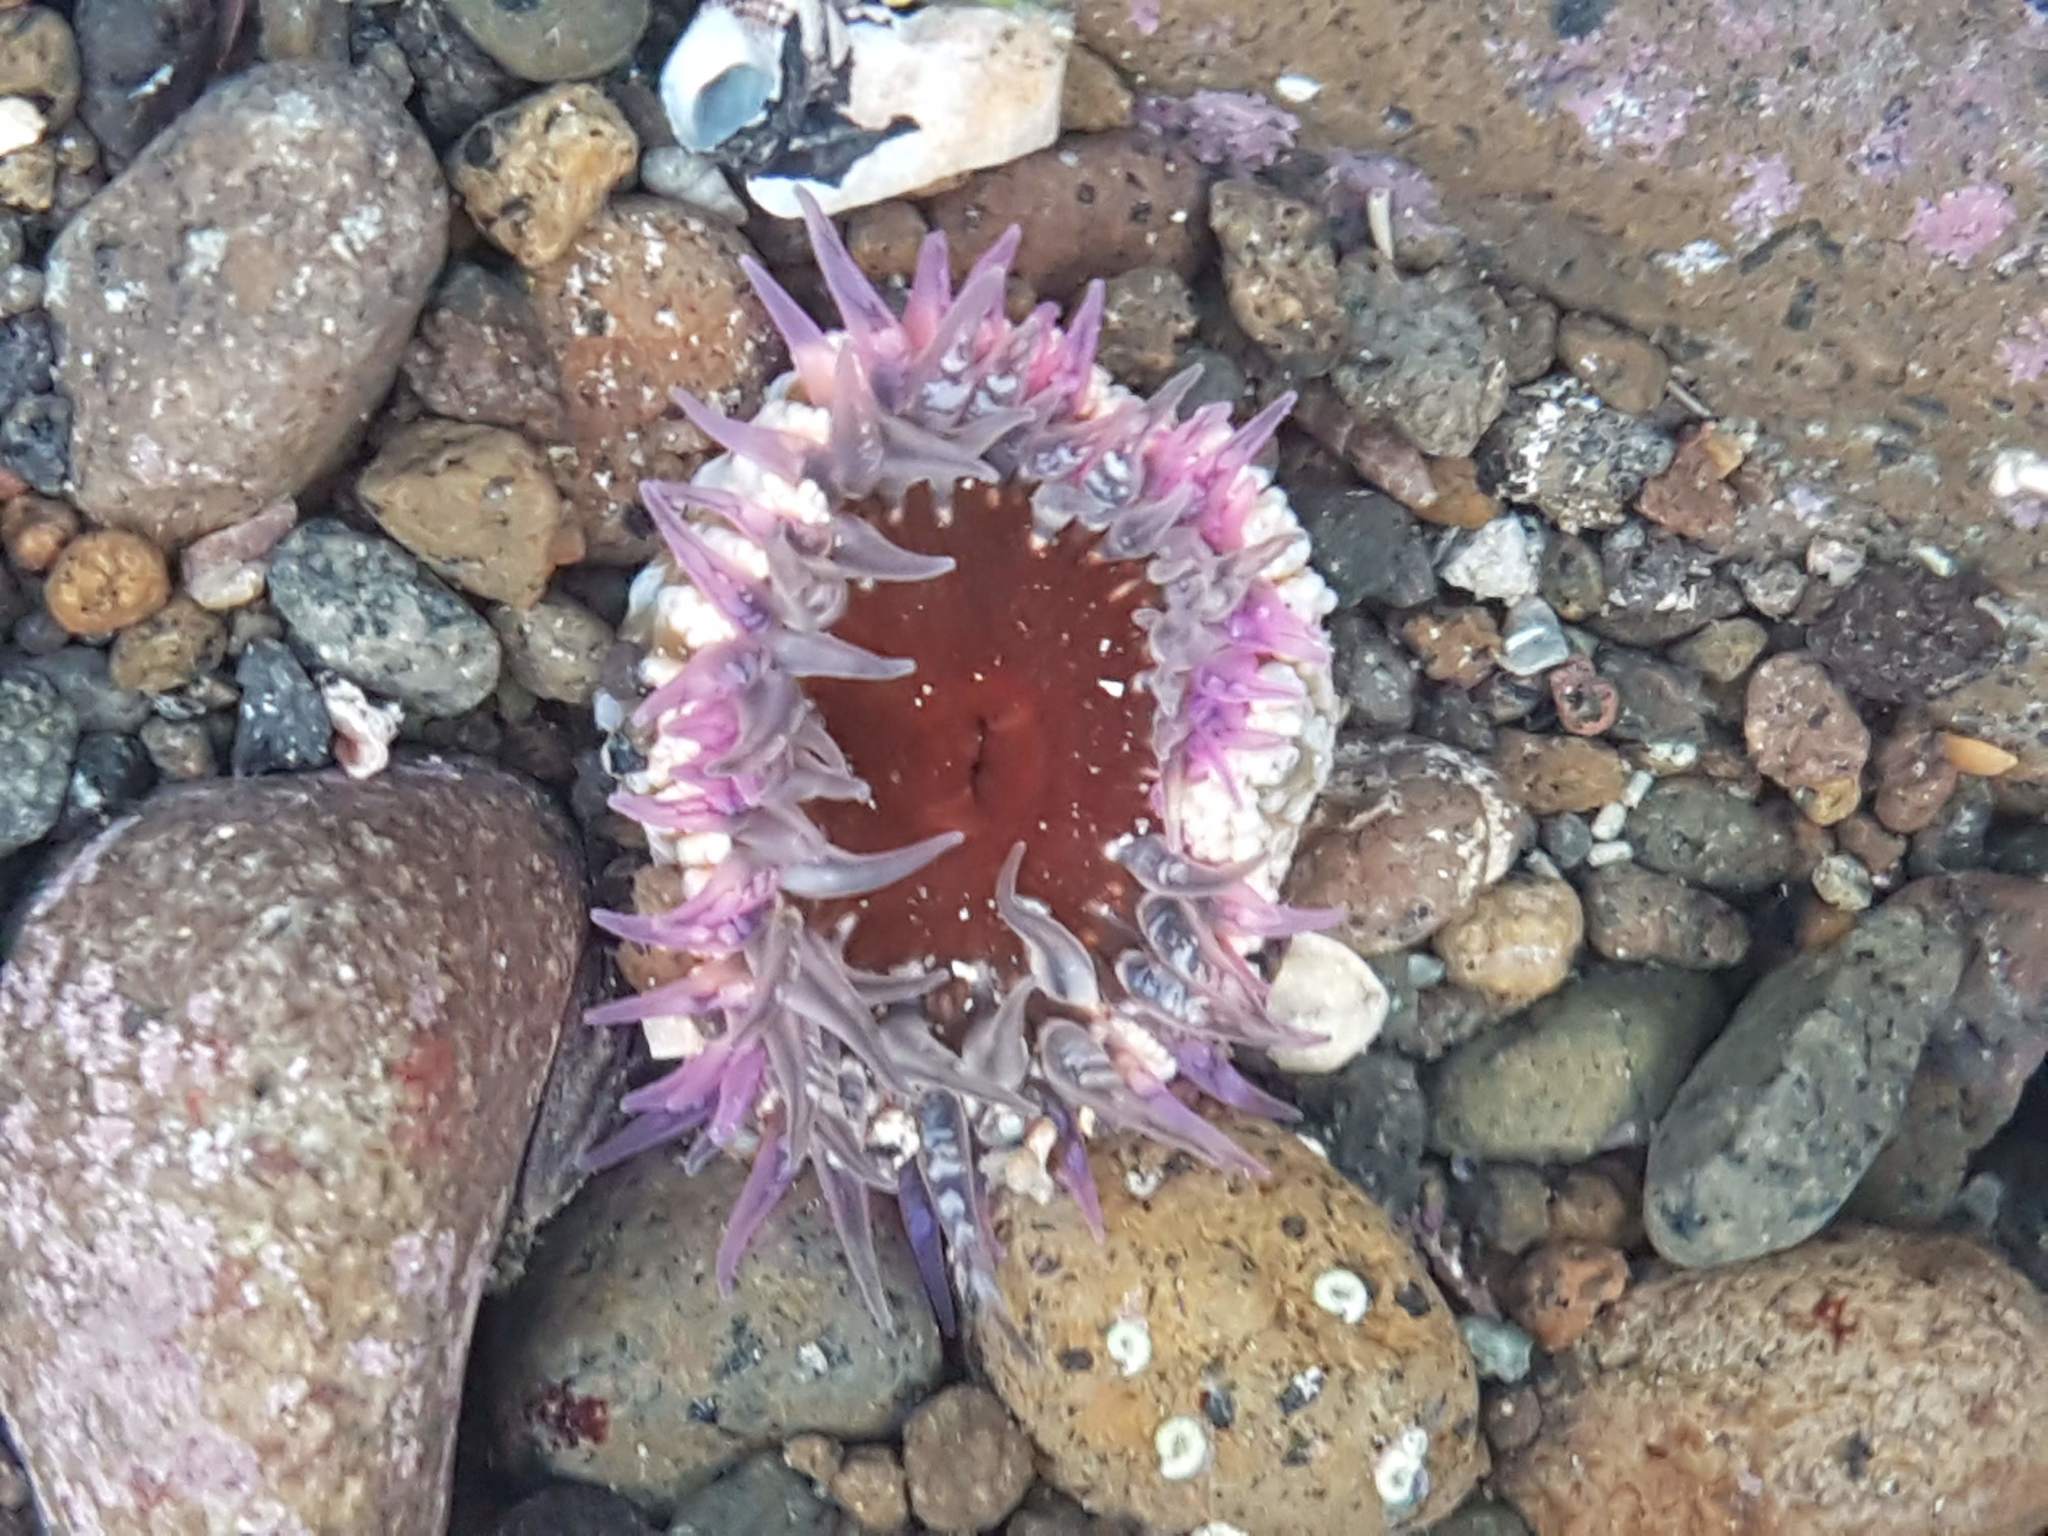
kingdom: Animalia
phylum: Cnidaria
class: Anthozoa
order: Actiniaria
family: Actiniidae
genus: Oulactis
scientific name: Oulactis muscosa
